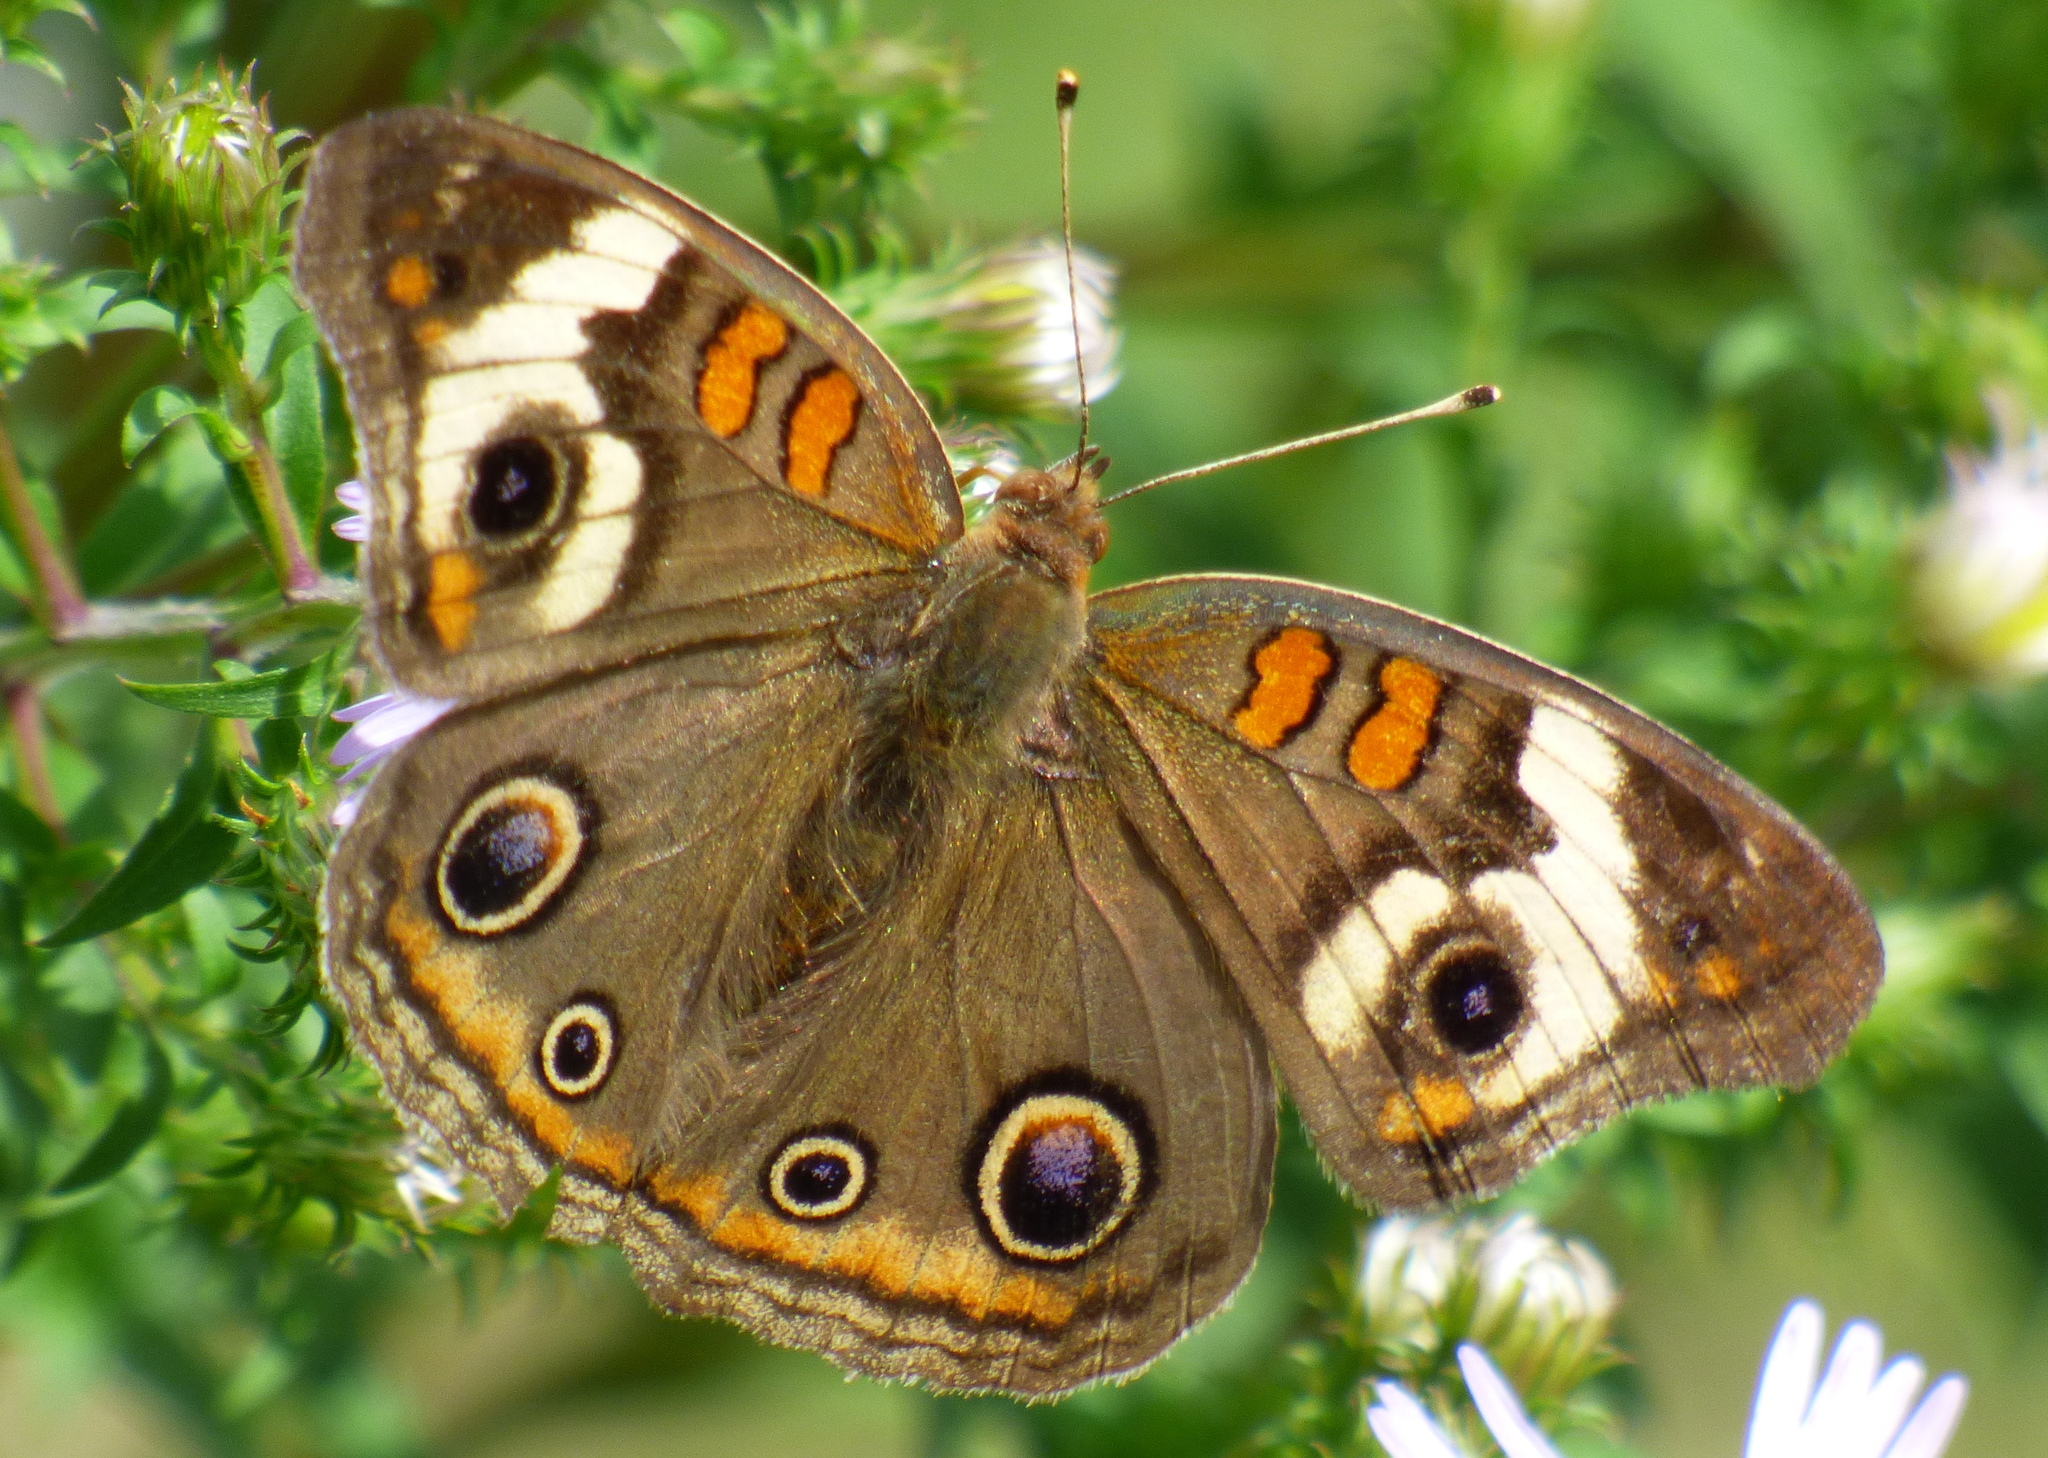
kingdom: Animalia
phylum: Arthropoda
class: Insecta
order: Lepidoptera
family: Nymphalidae
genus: Junonia
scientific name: Junonia coenia
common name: Common buckeye
